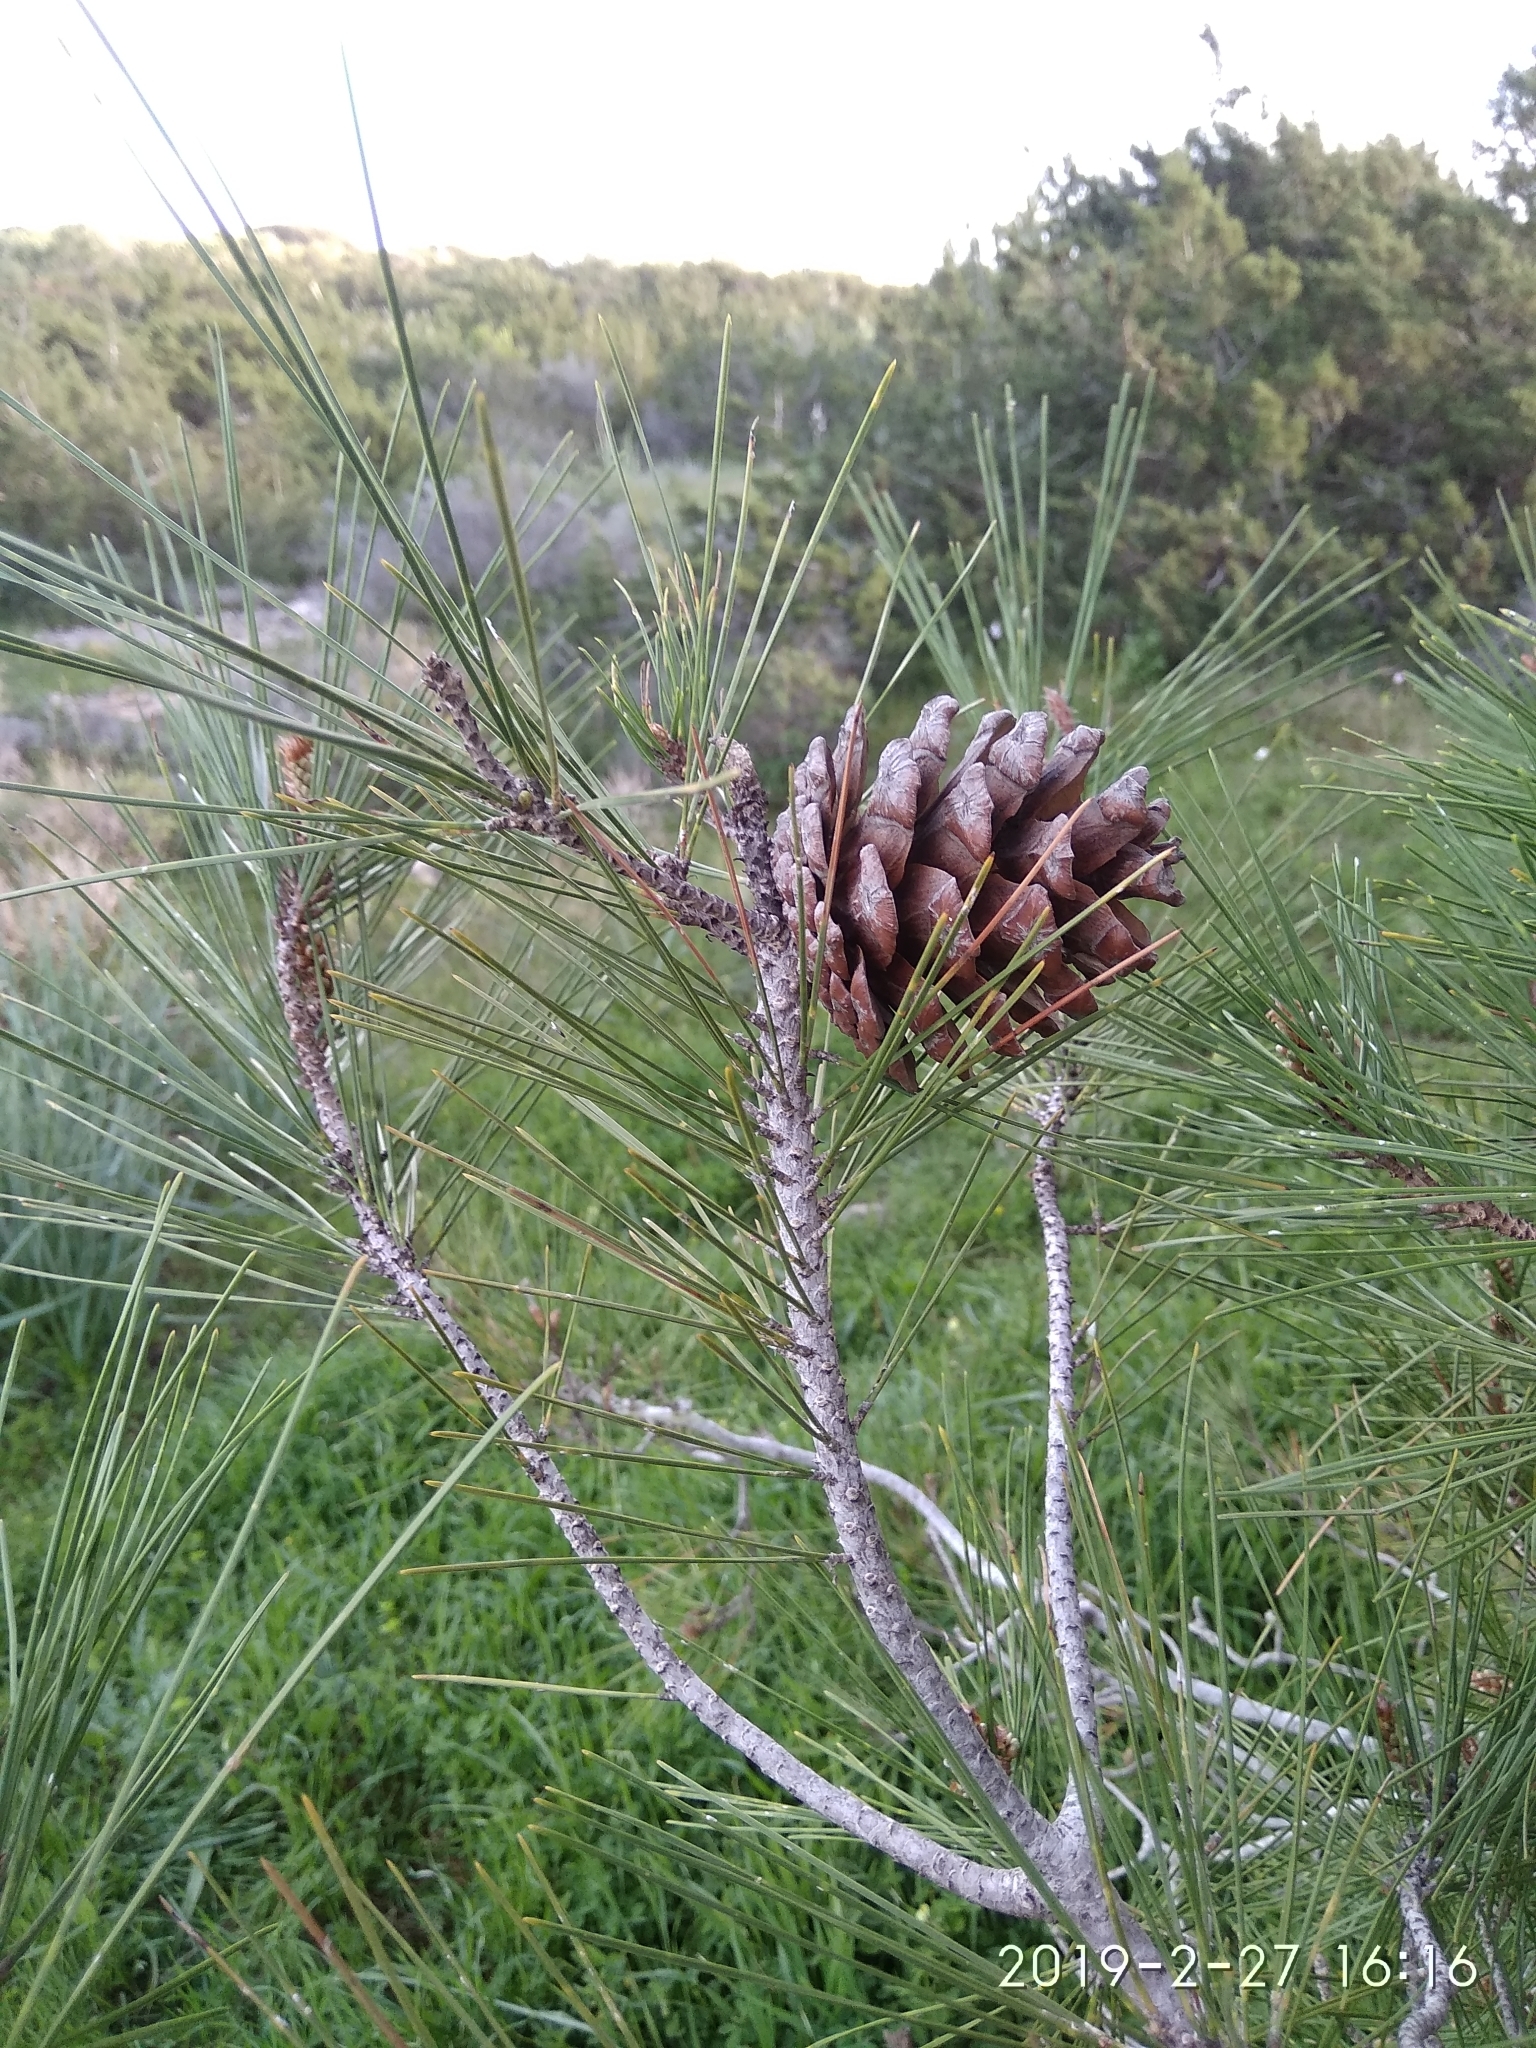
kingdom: Plantae
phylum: Tracheophyta
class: Pinopsida
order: Pinales
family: Pinaceae
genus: Pinus
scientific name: Pinus brutia
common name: Turkish pine
